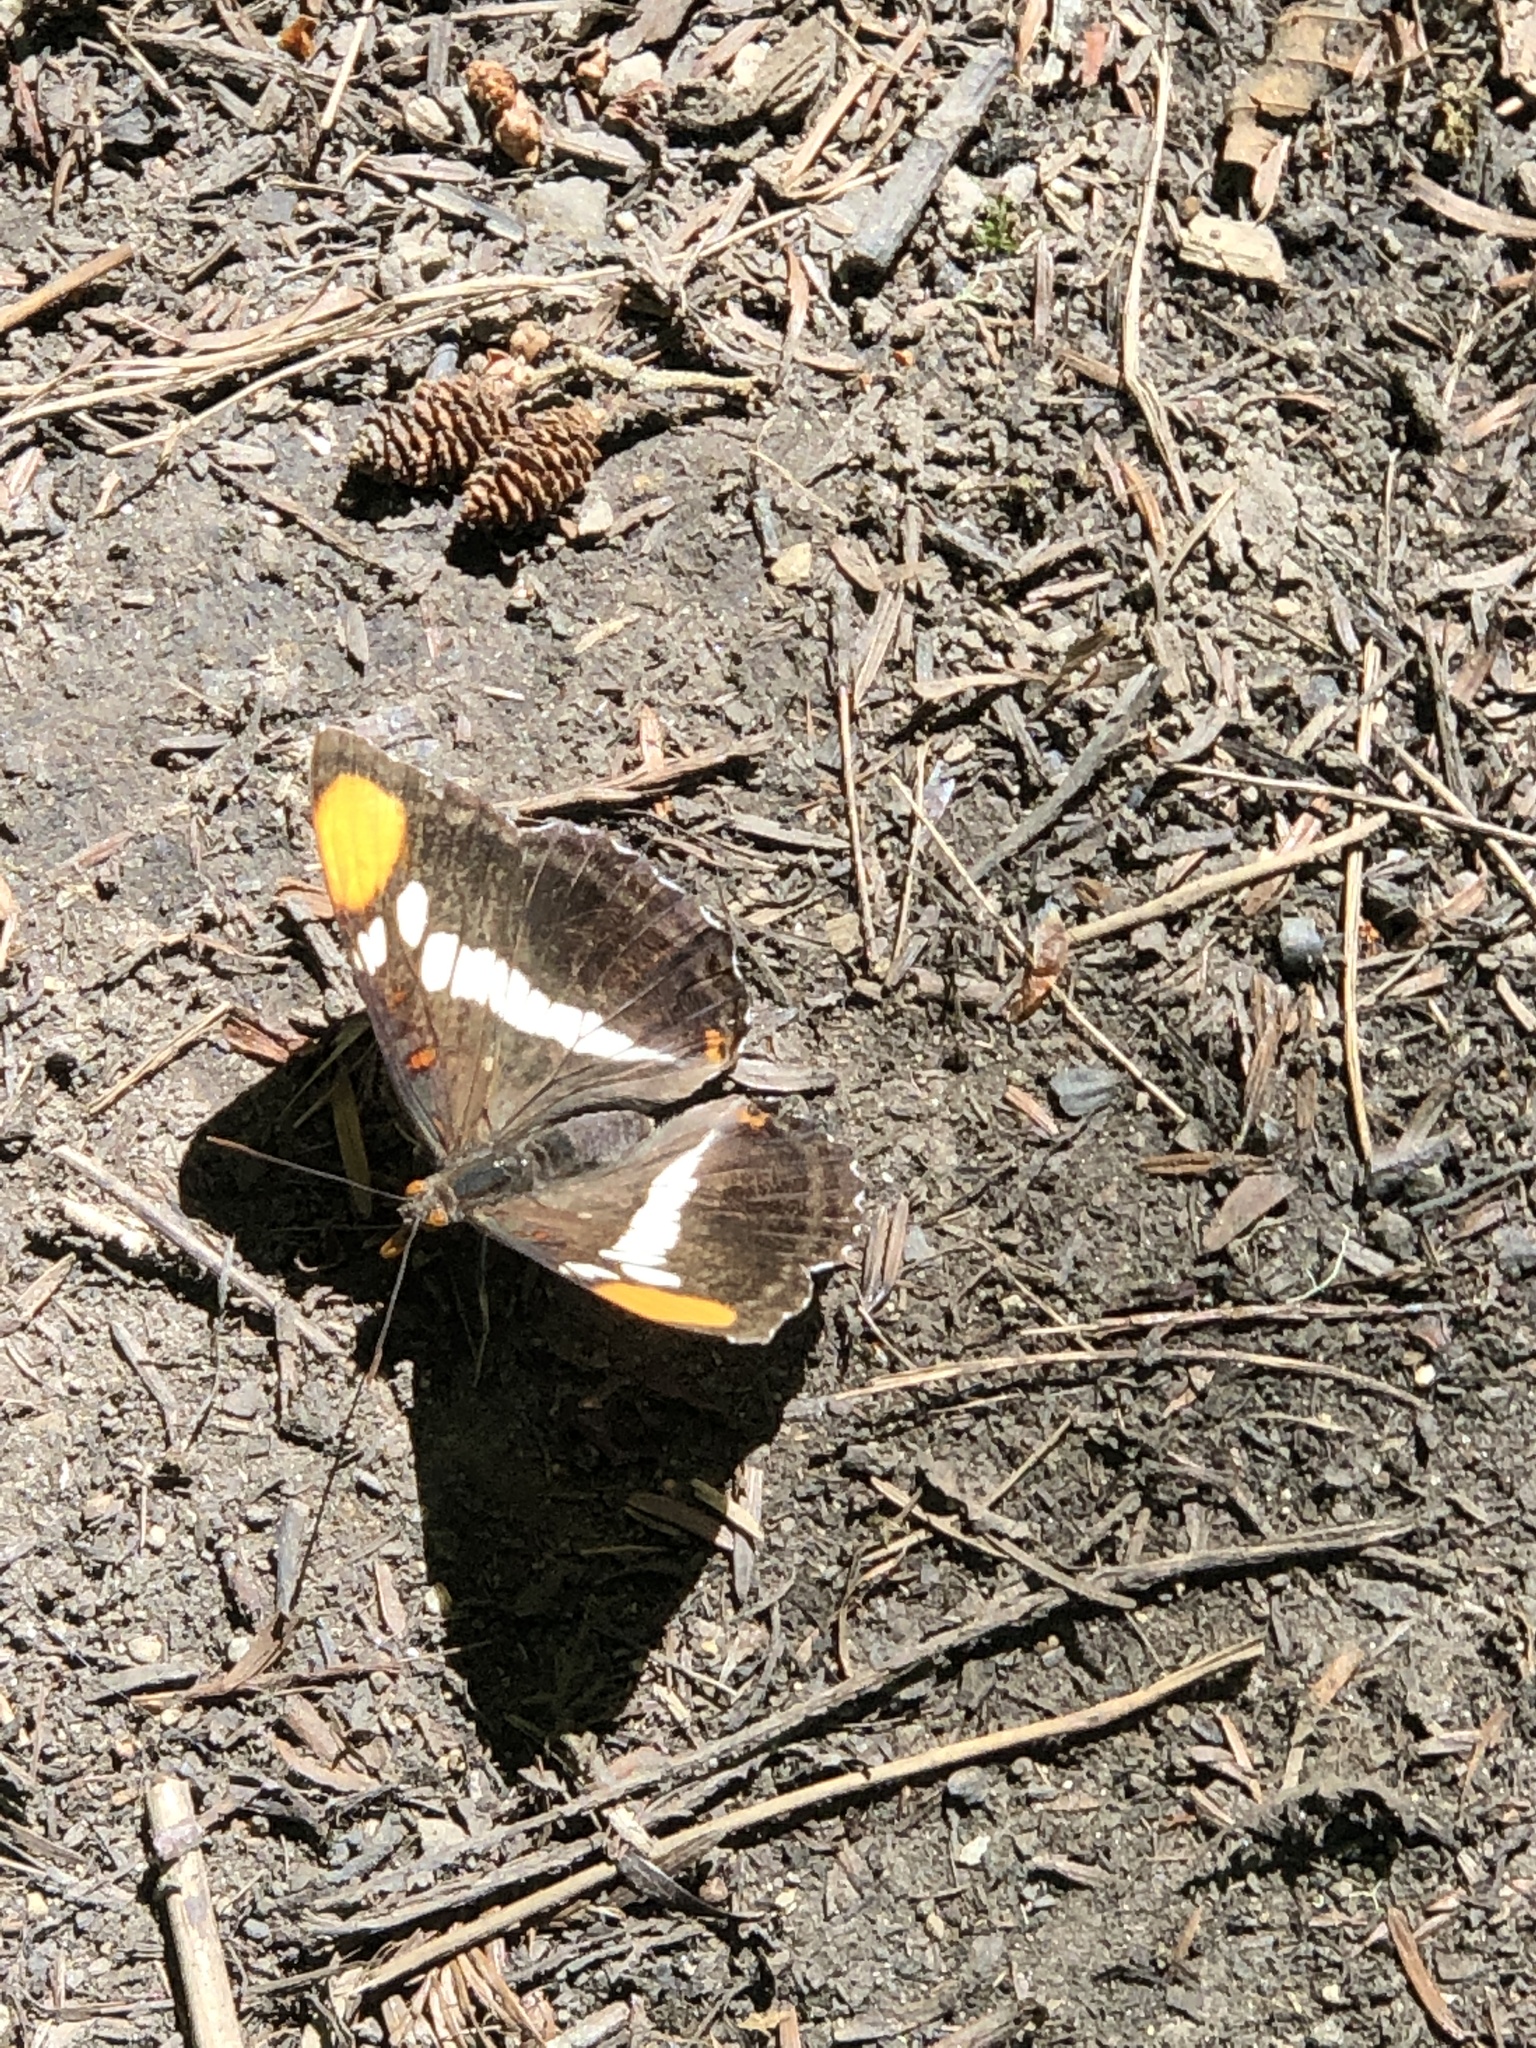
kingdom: Animalia
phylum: Arthropoda
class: Insecta
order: Lepidoptera
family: Nymphalidae
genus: Limenitis
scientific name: Limenitis bredowii
